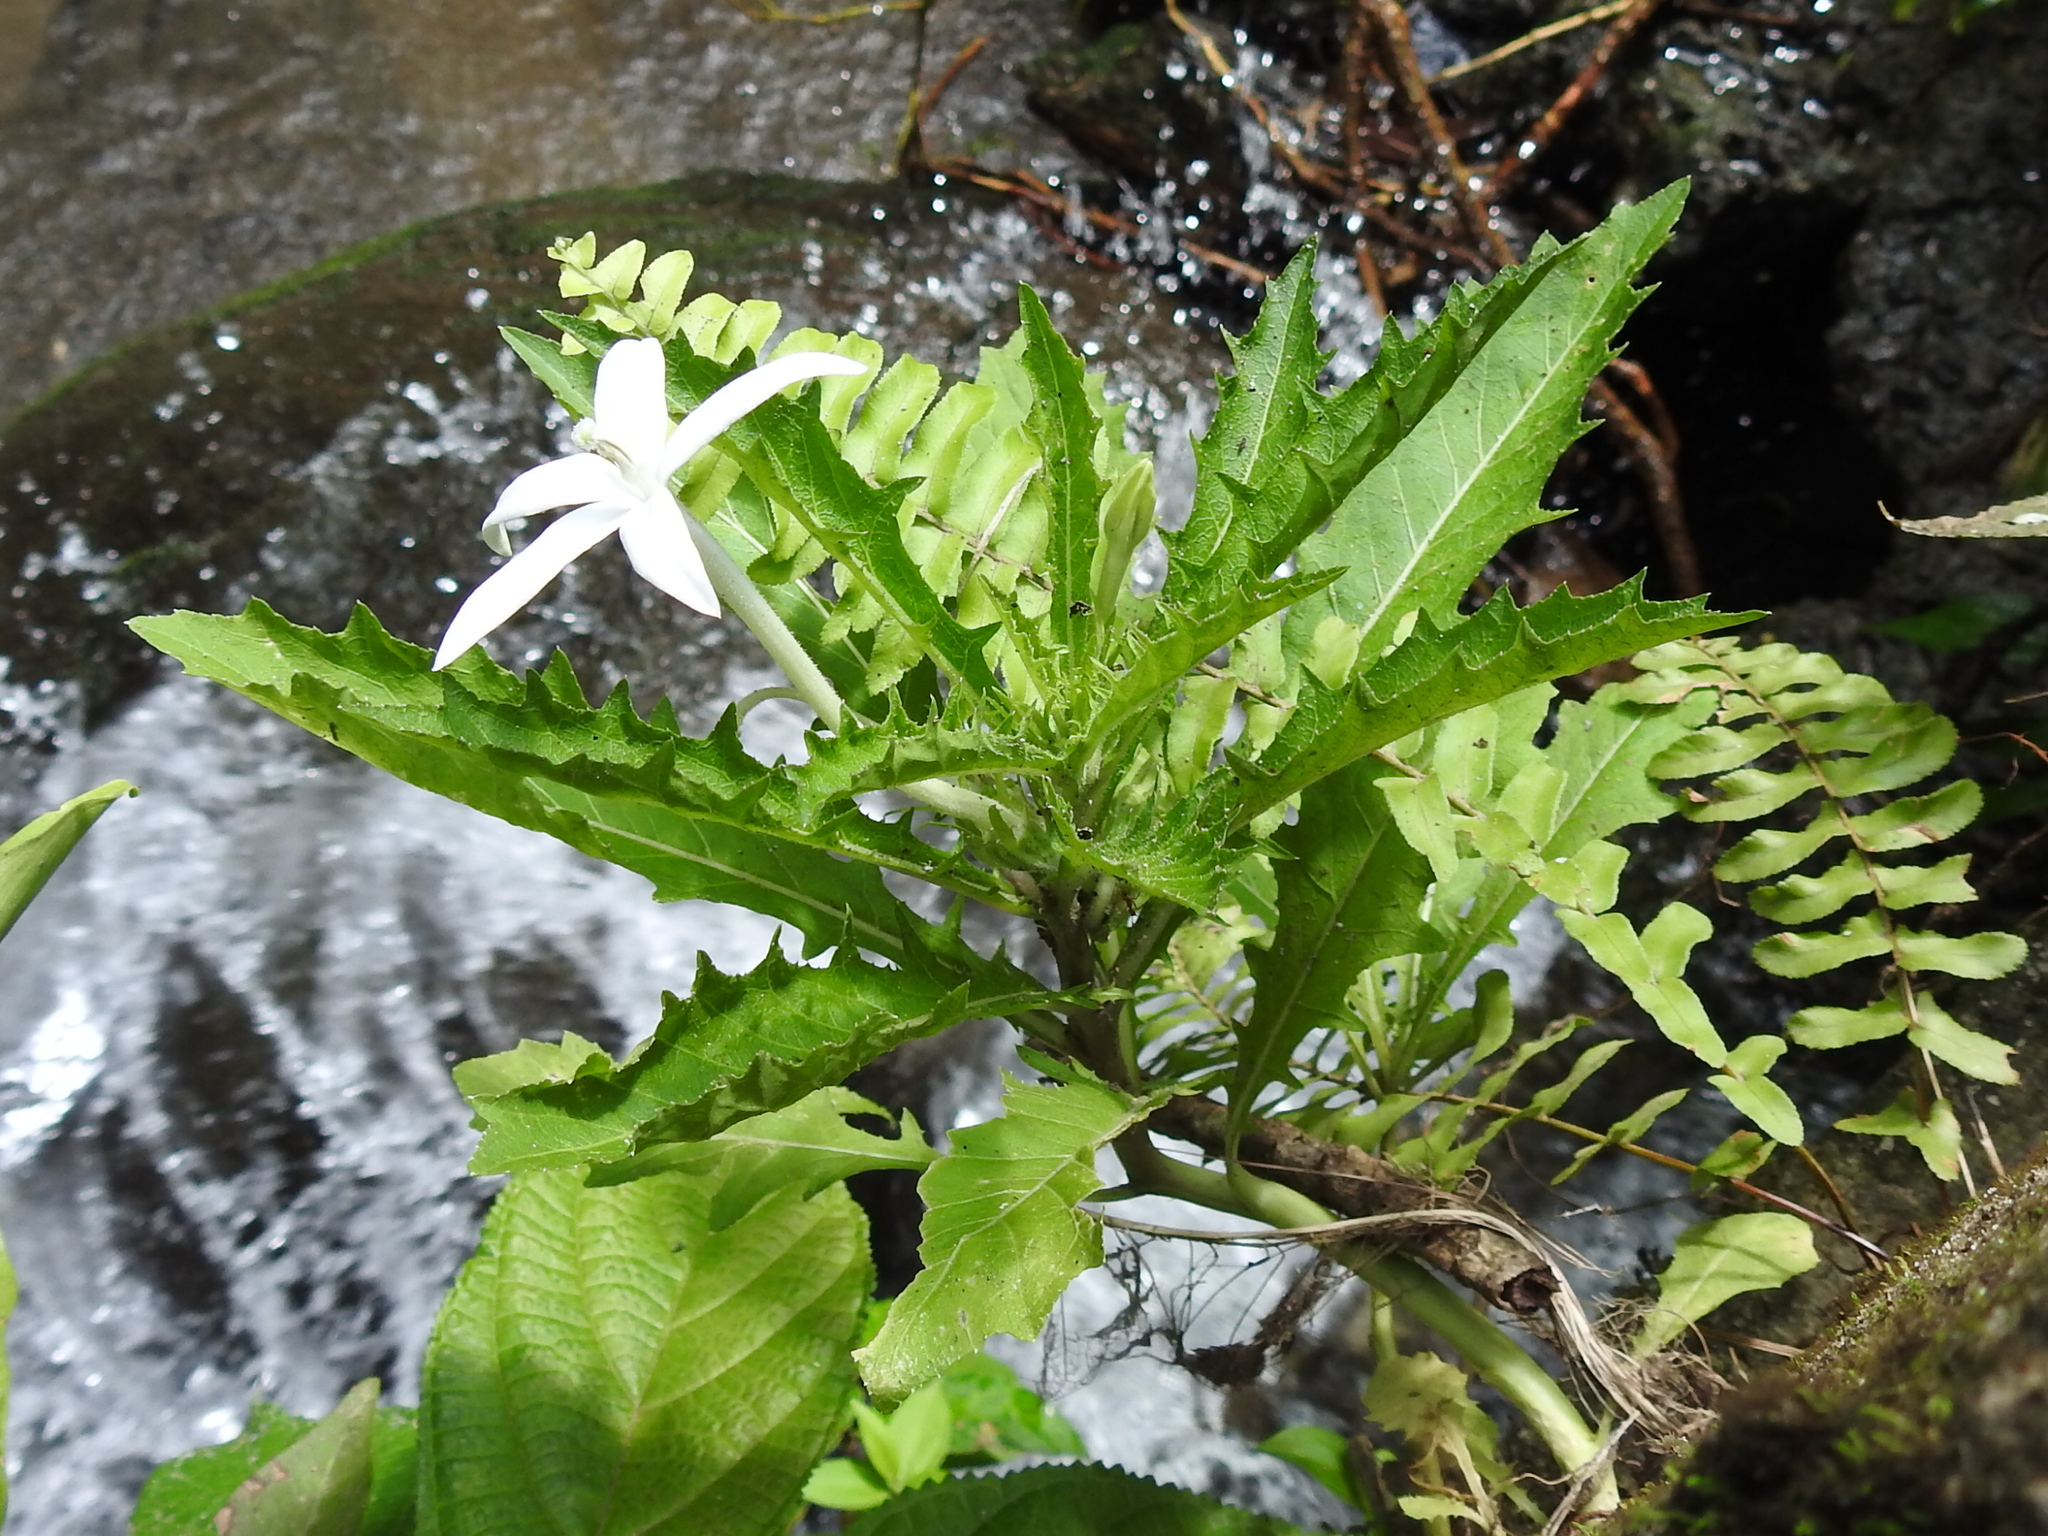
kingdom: Plantae
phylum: Tracheophyta
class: Magnoliopsida
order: Asterales
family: Campanulaceae
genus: Hippobroma
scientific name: Hippobroma longiflora
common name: Madamfate
